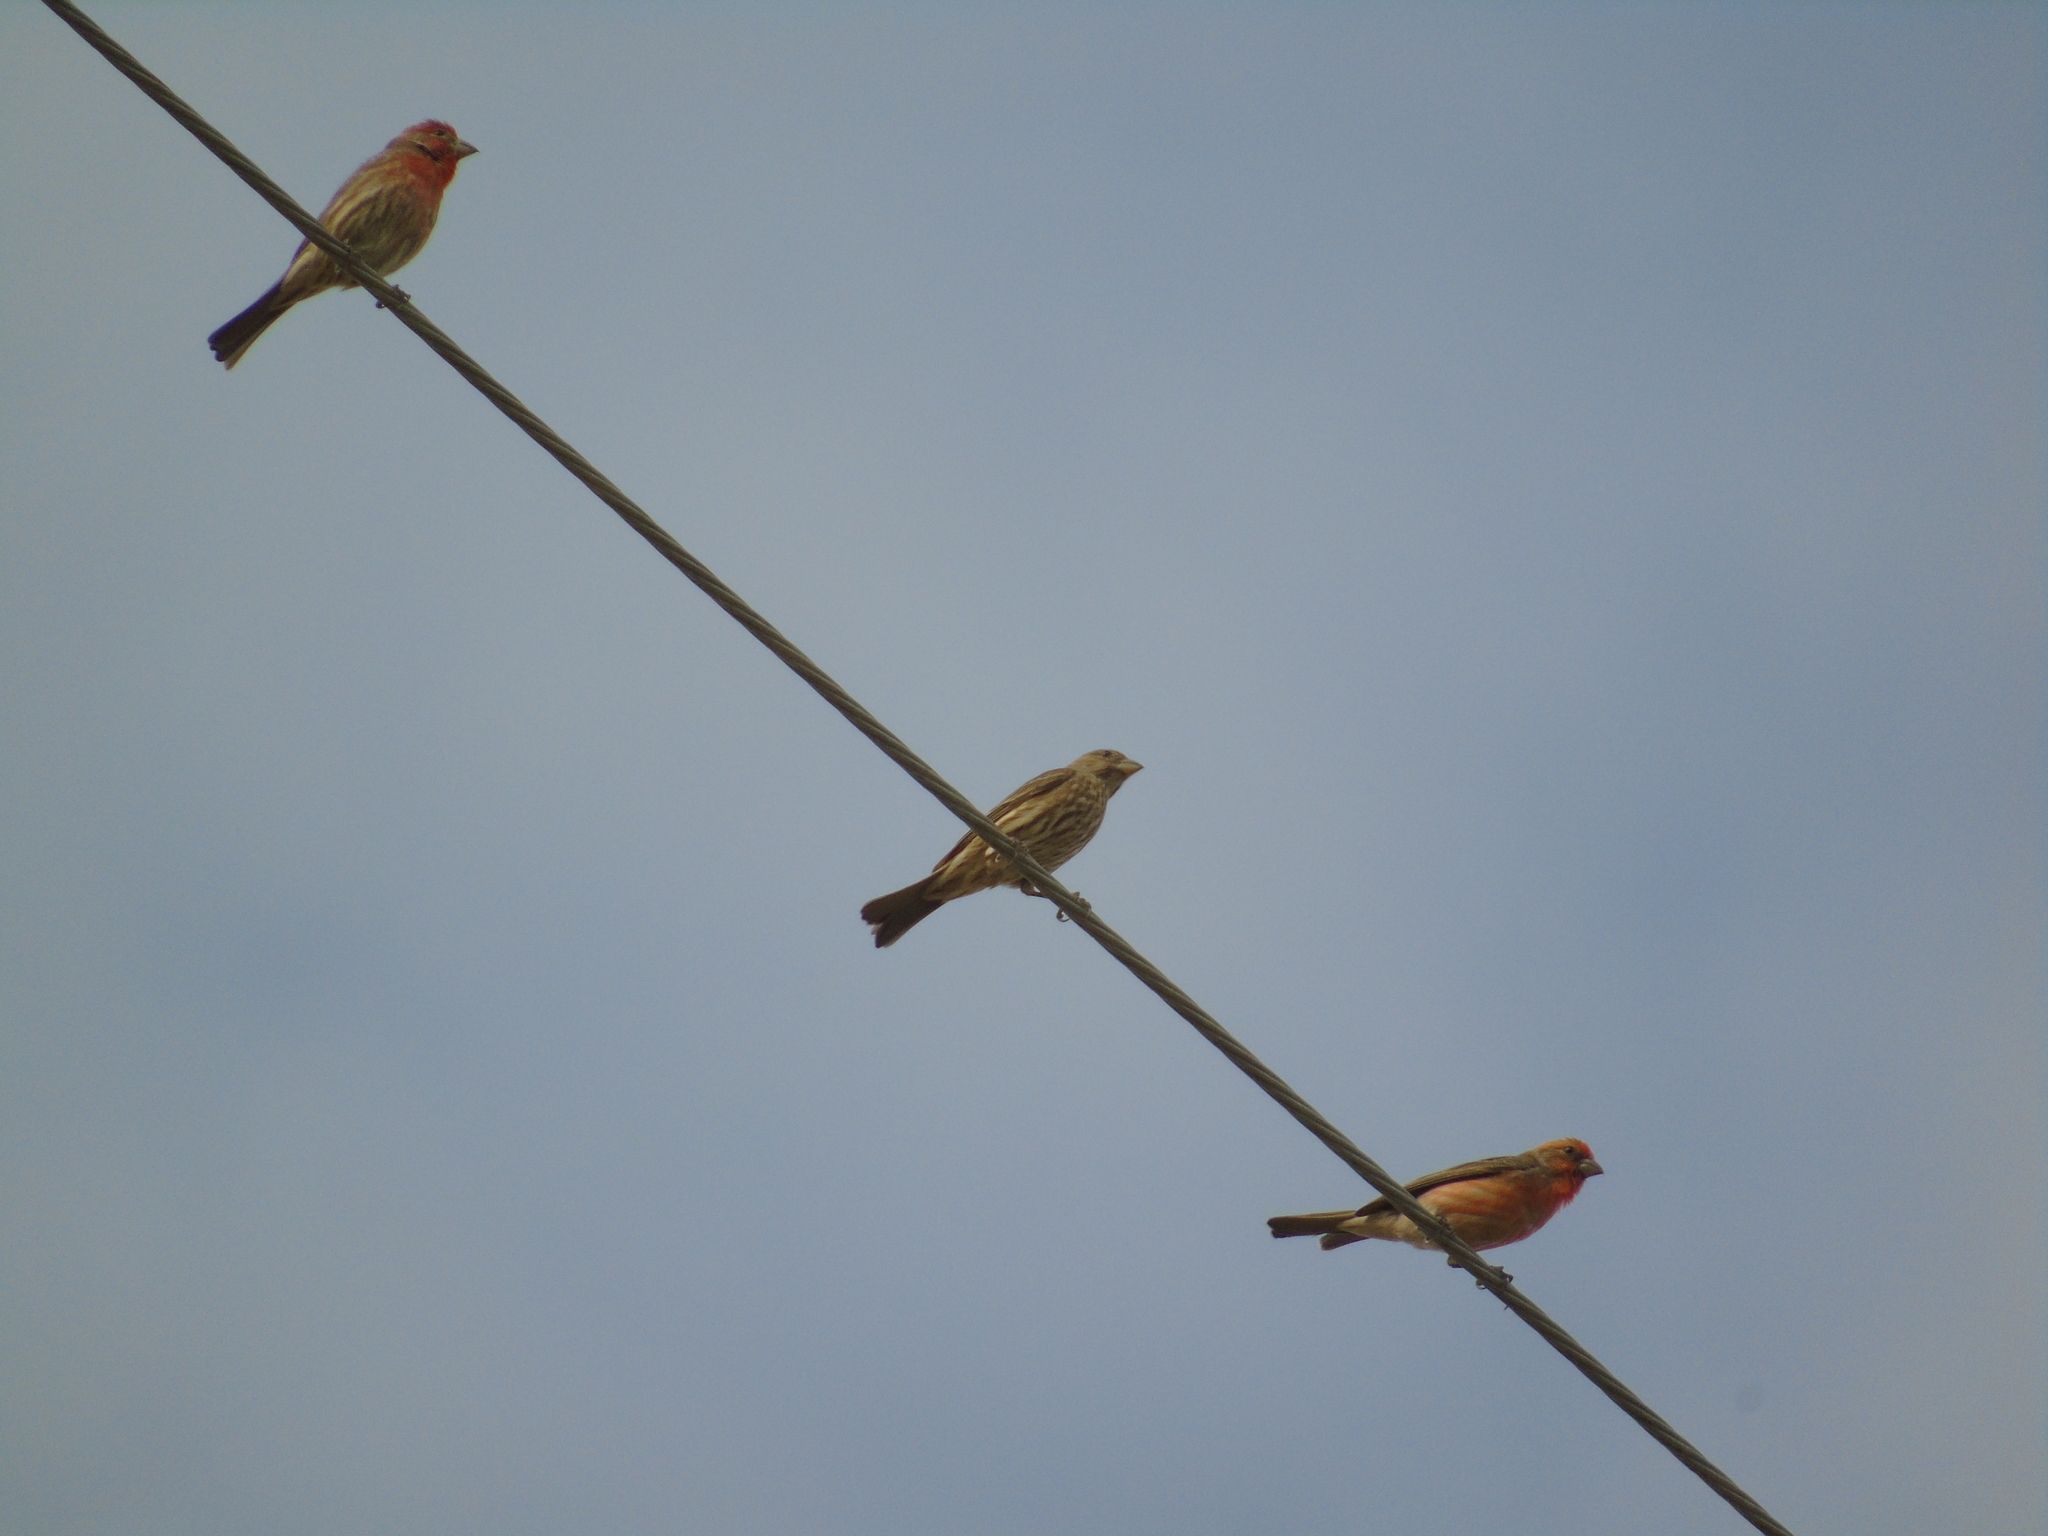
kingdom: Animalia
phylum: Chordata
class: Aves
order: Passeriformes
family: Fringillidae
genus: Haemorhous
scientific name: Haemorhous mexicanus
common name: House finch
